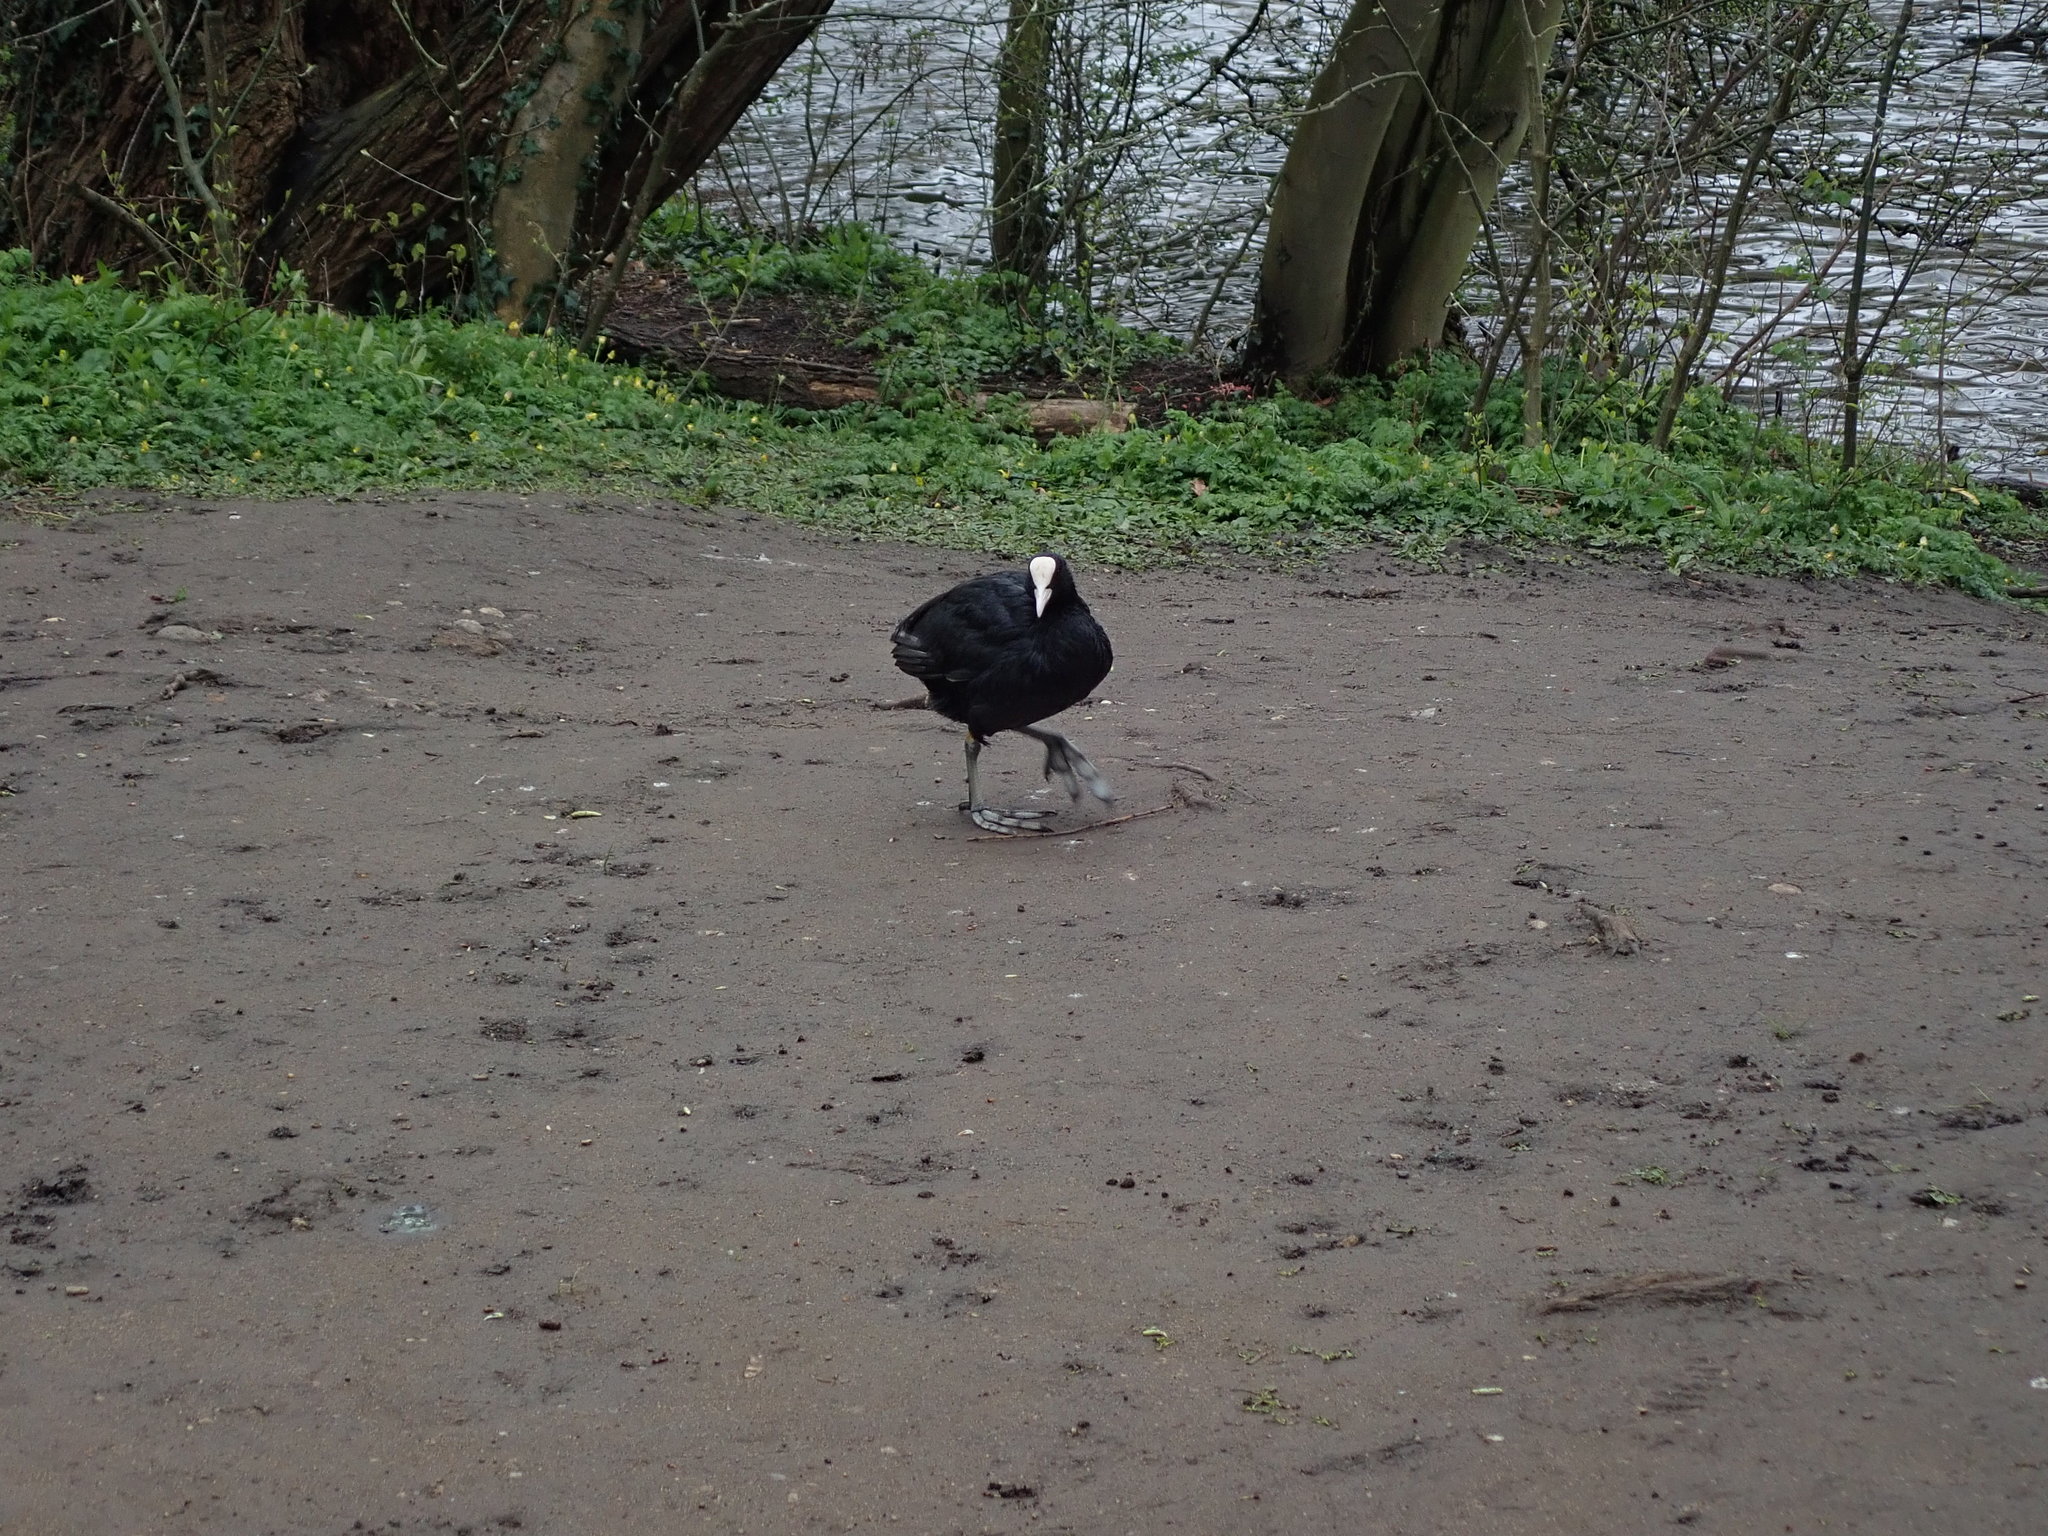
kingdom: Animalia
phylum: Chordata
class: Aves
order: Gruiformes
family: Rallidae
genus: Fulica
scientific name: Fulica atra
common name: Eurasian coot
